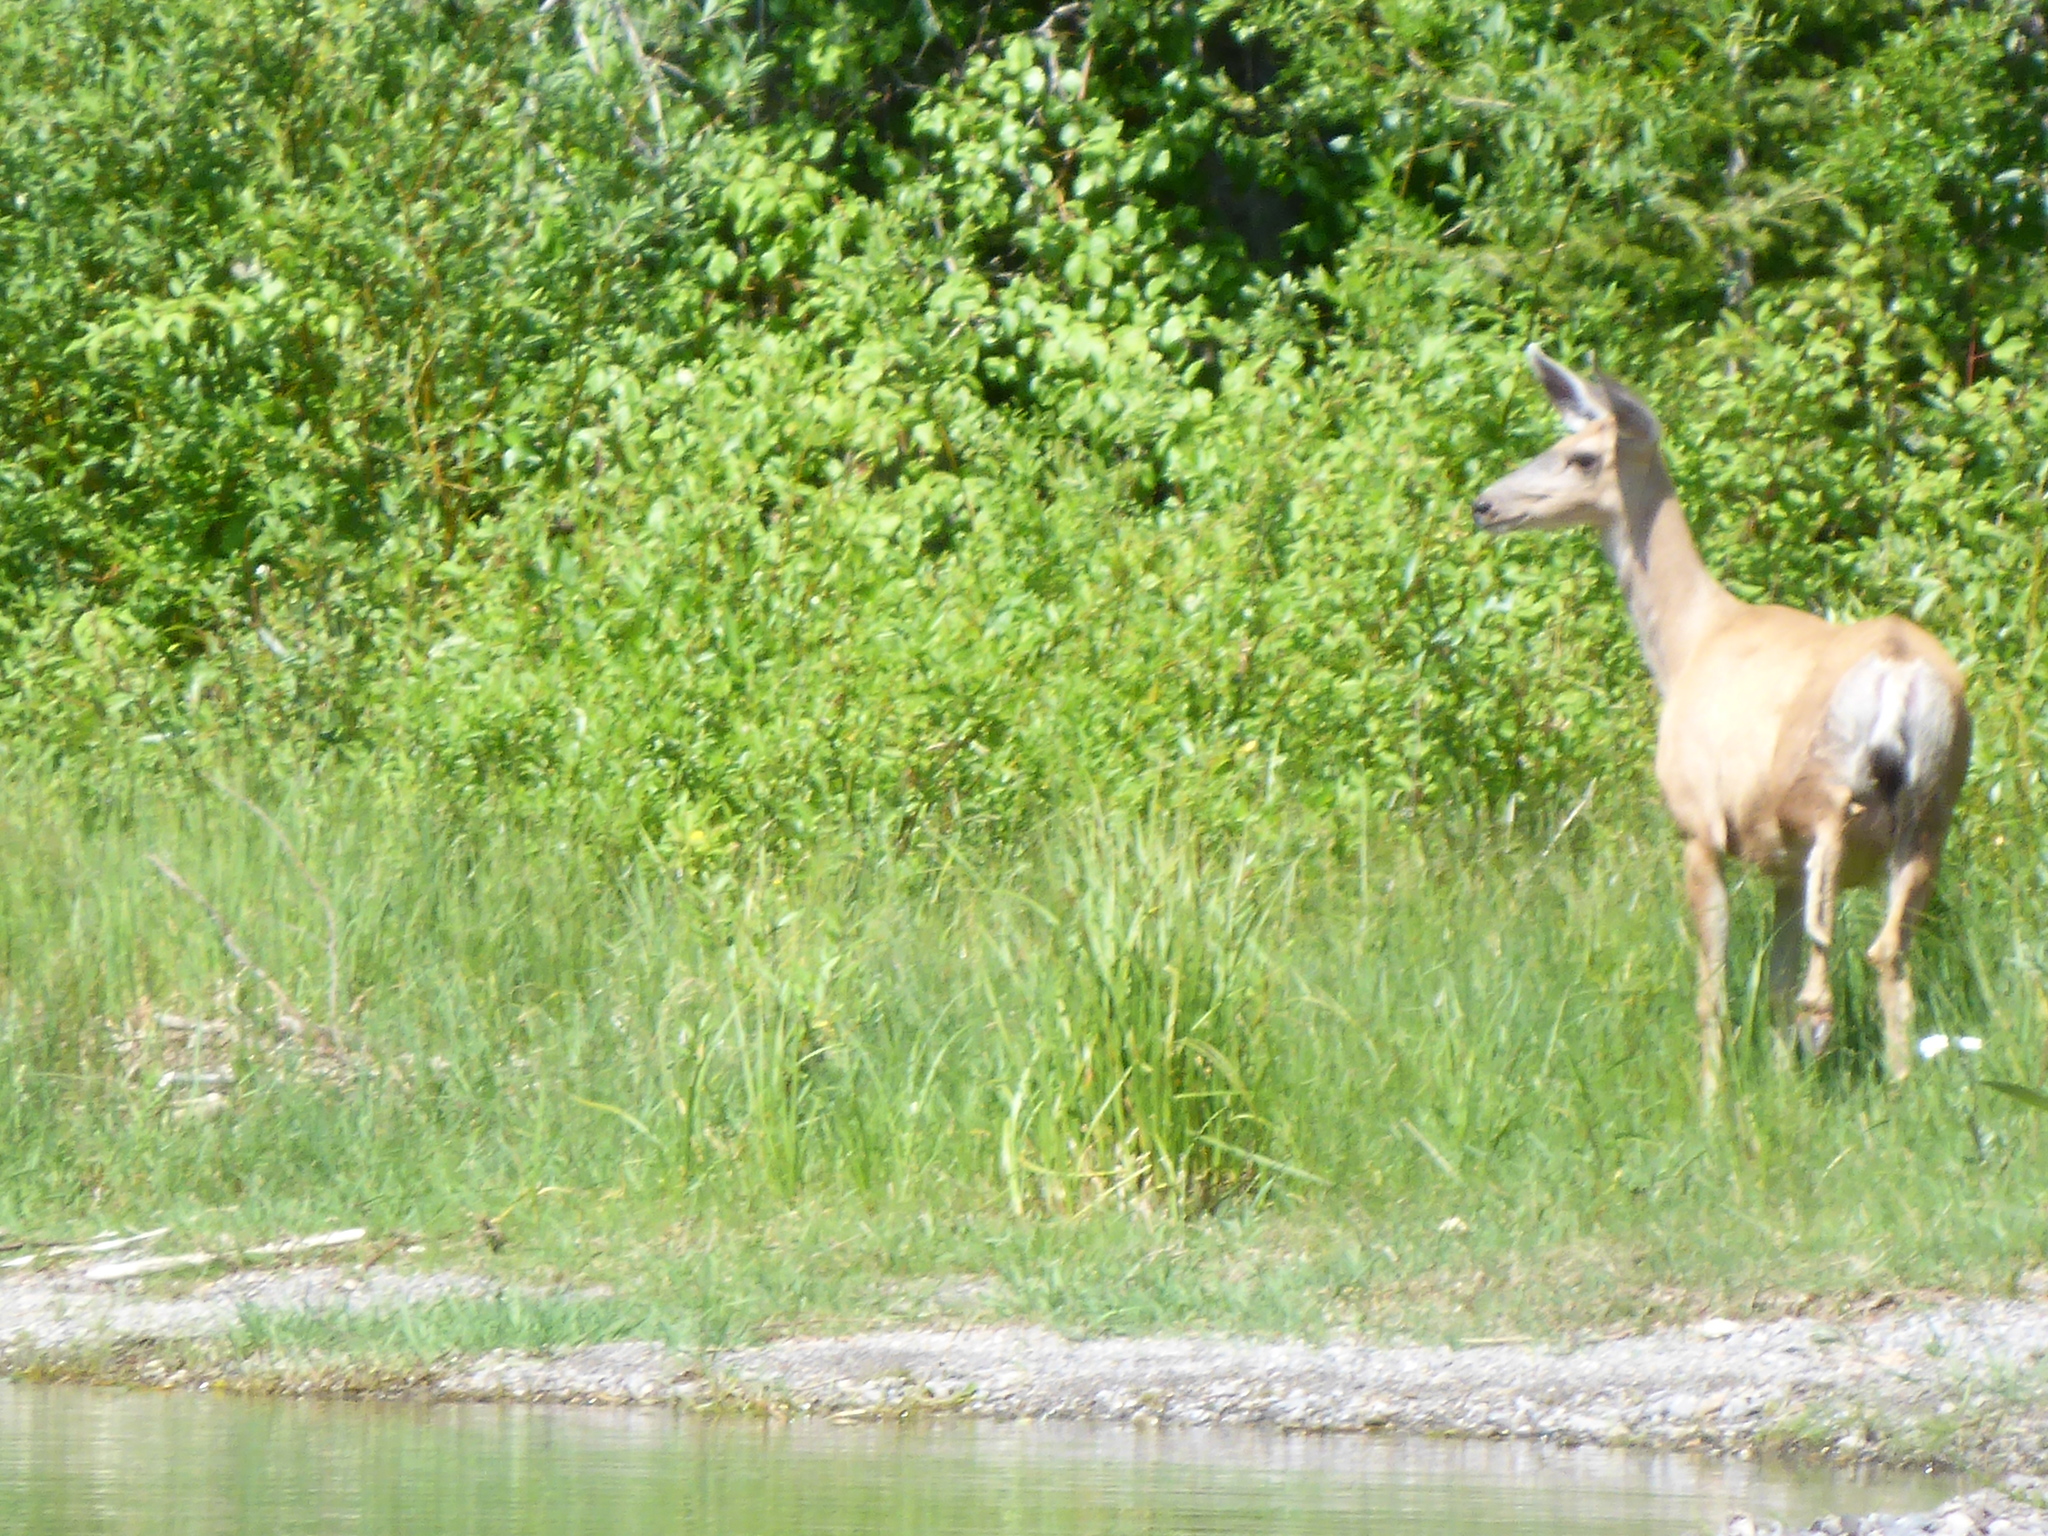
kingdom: Animalia
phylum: Chordata
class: Mammalia
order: Artiodactyla
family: Cervidae
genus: Odocoileus
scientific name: Odocoileus hemionus
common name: Mule deer
